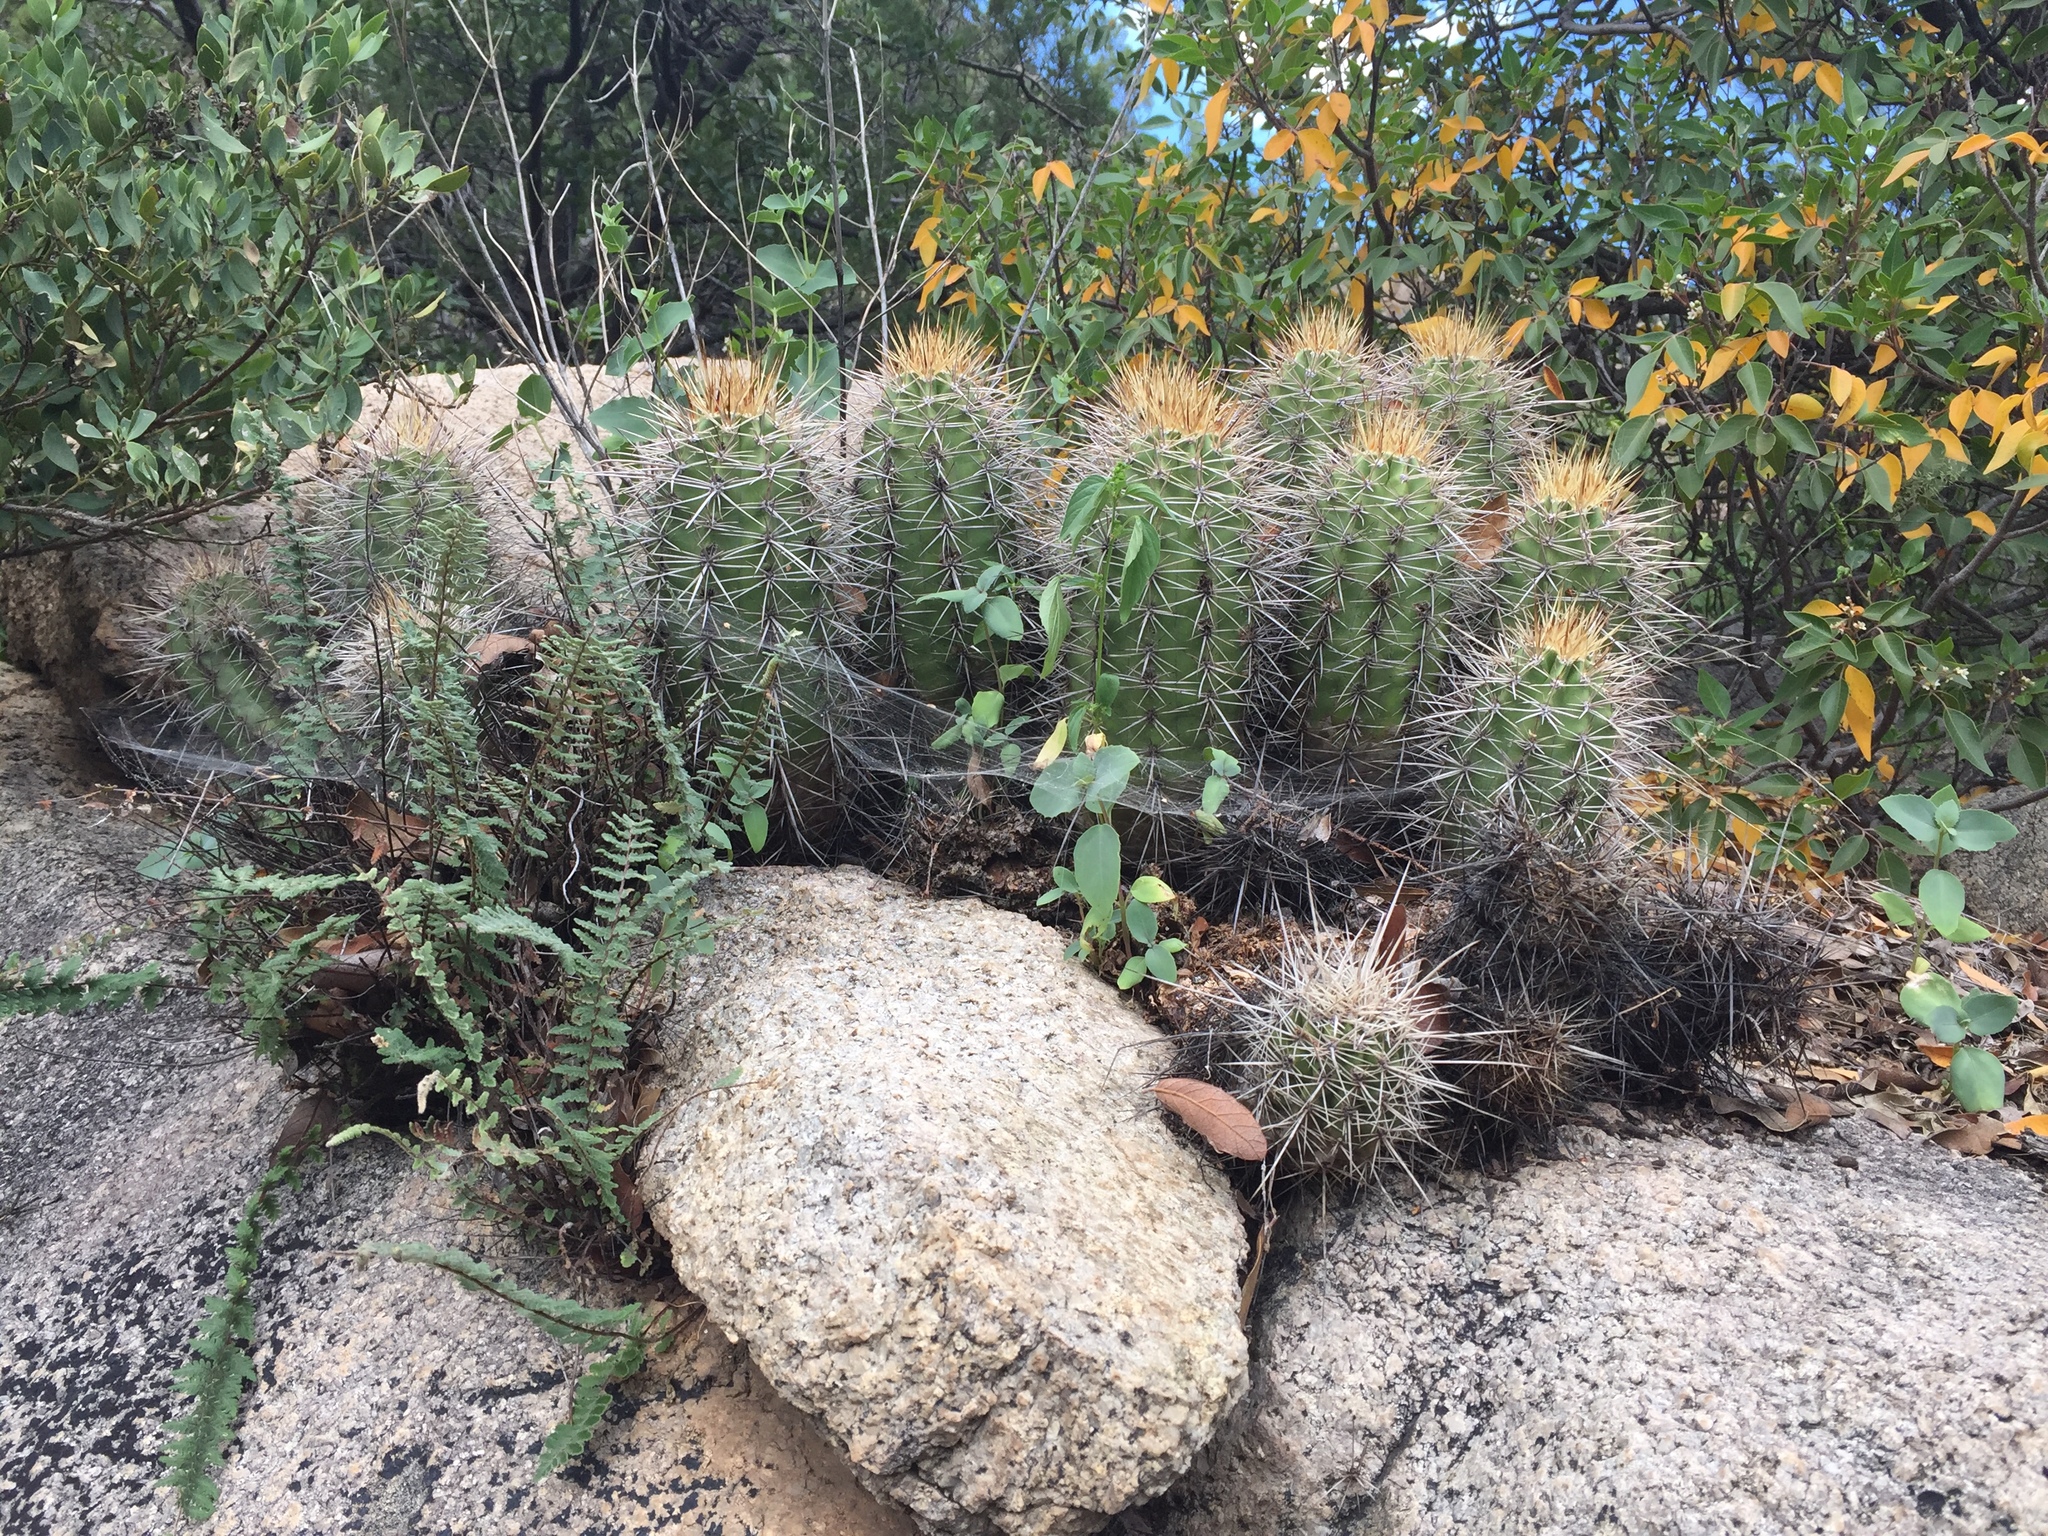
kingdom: Plantae
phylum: Tracheophyta
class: Magnoliopsida
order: Caryophyllales
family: Cactaceae
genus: Echinocereus
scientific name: Echinocereus coccineus
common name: Scarlet hedgehog cactus
